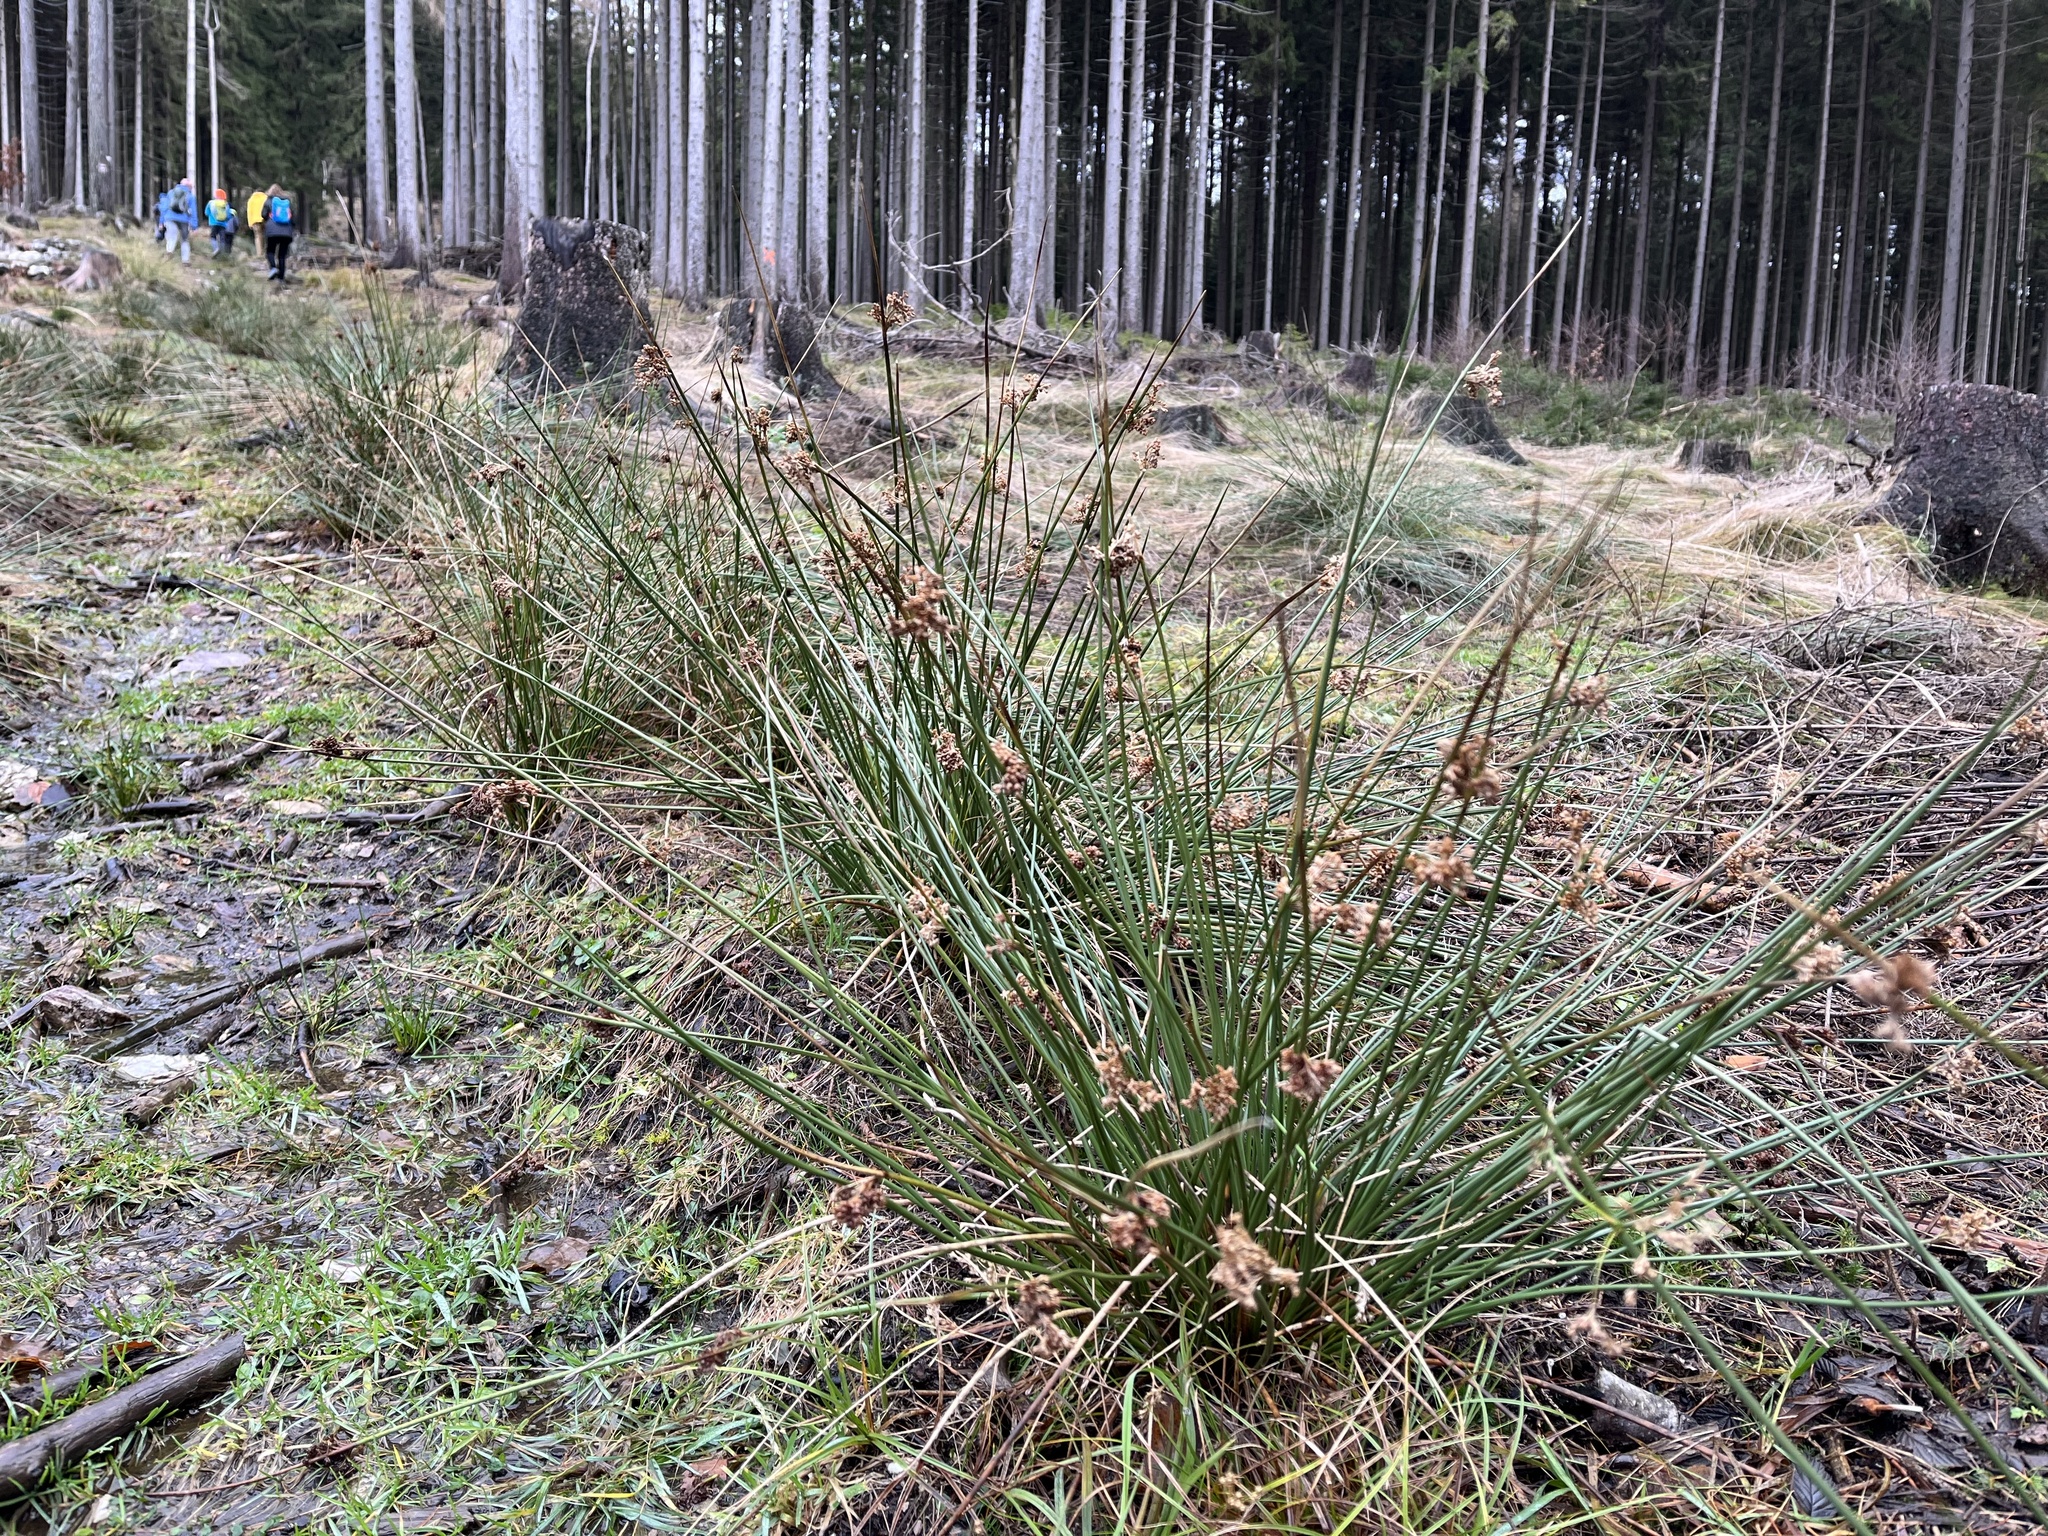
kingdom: Plantae
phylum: Tracheophyta
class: Liliopsida
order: Poales
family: Juncaceae
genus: Juncus
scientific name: Juncus effusus
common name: Soft rush
